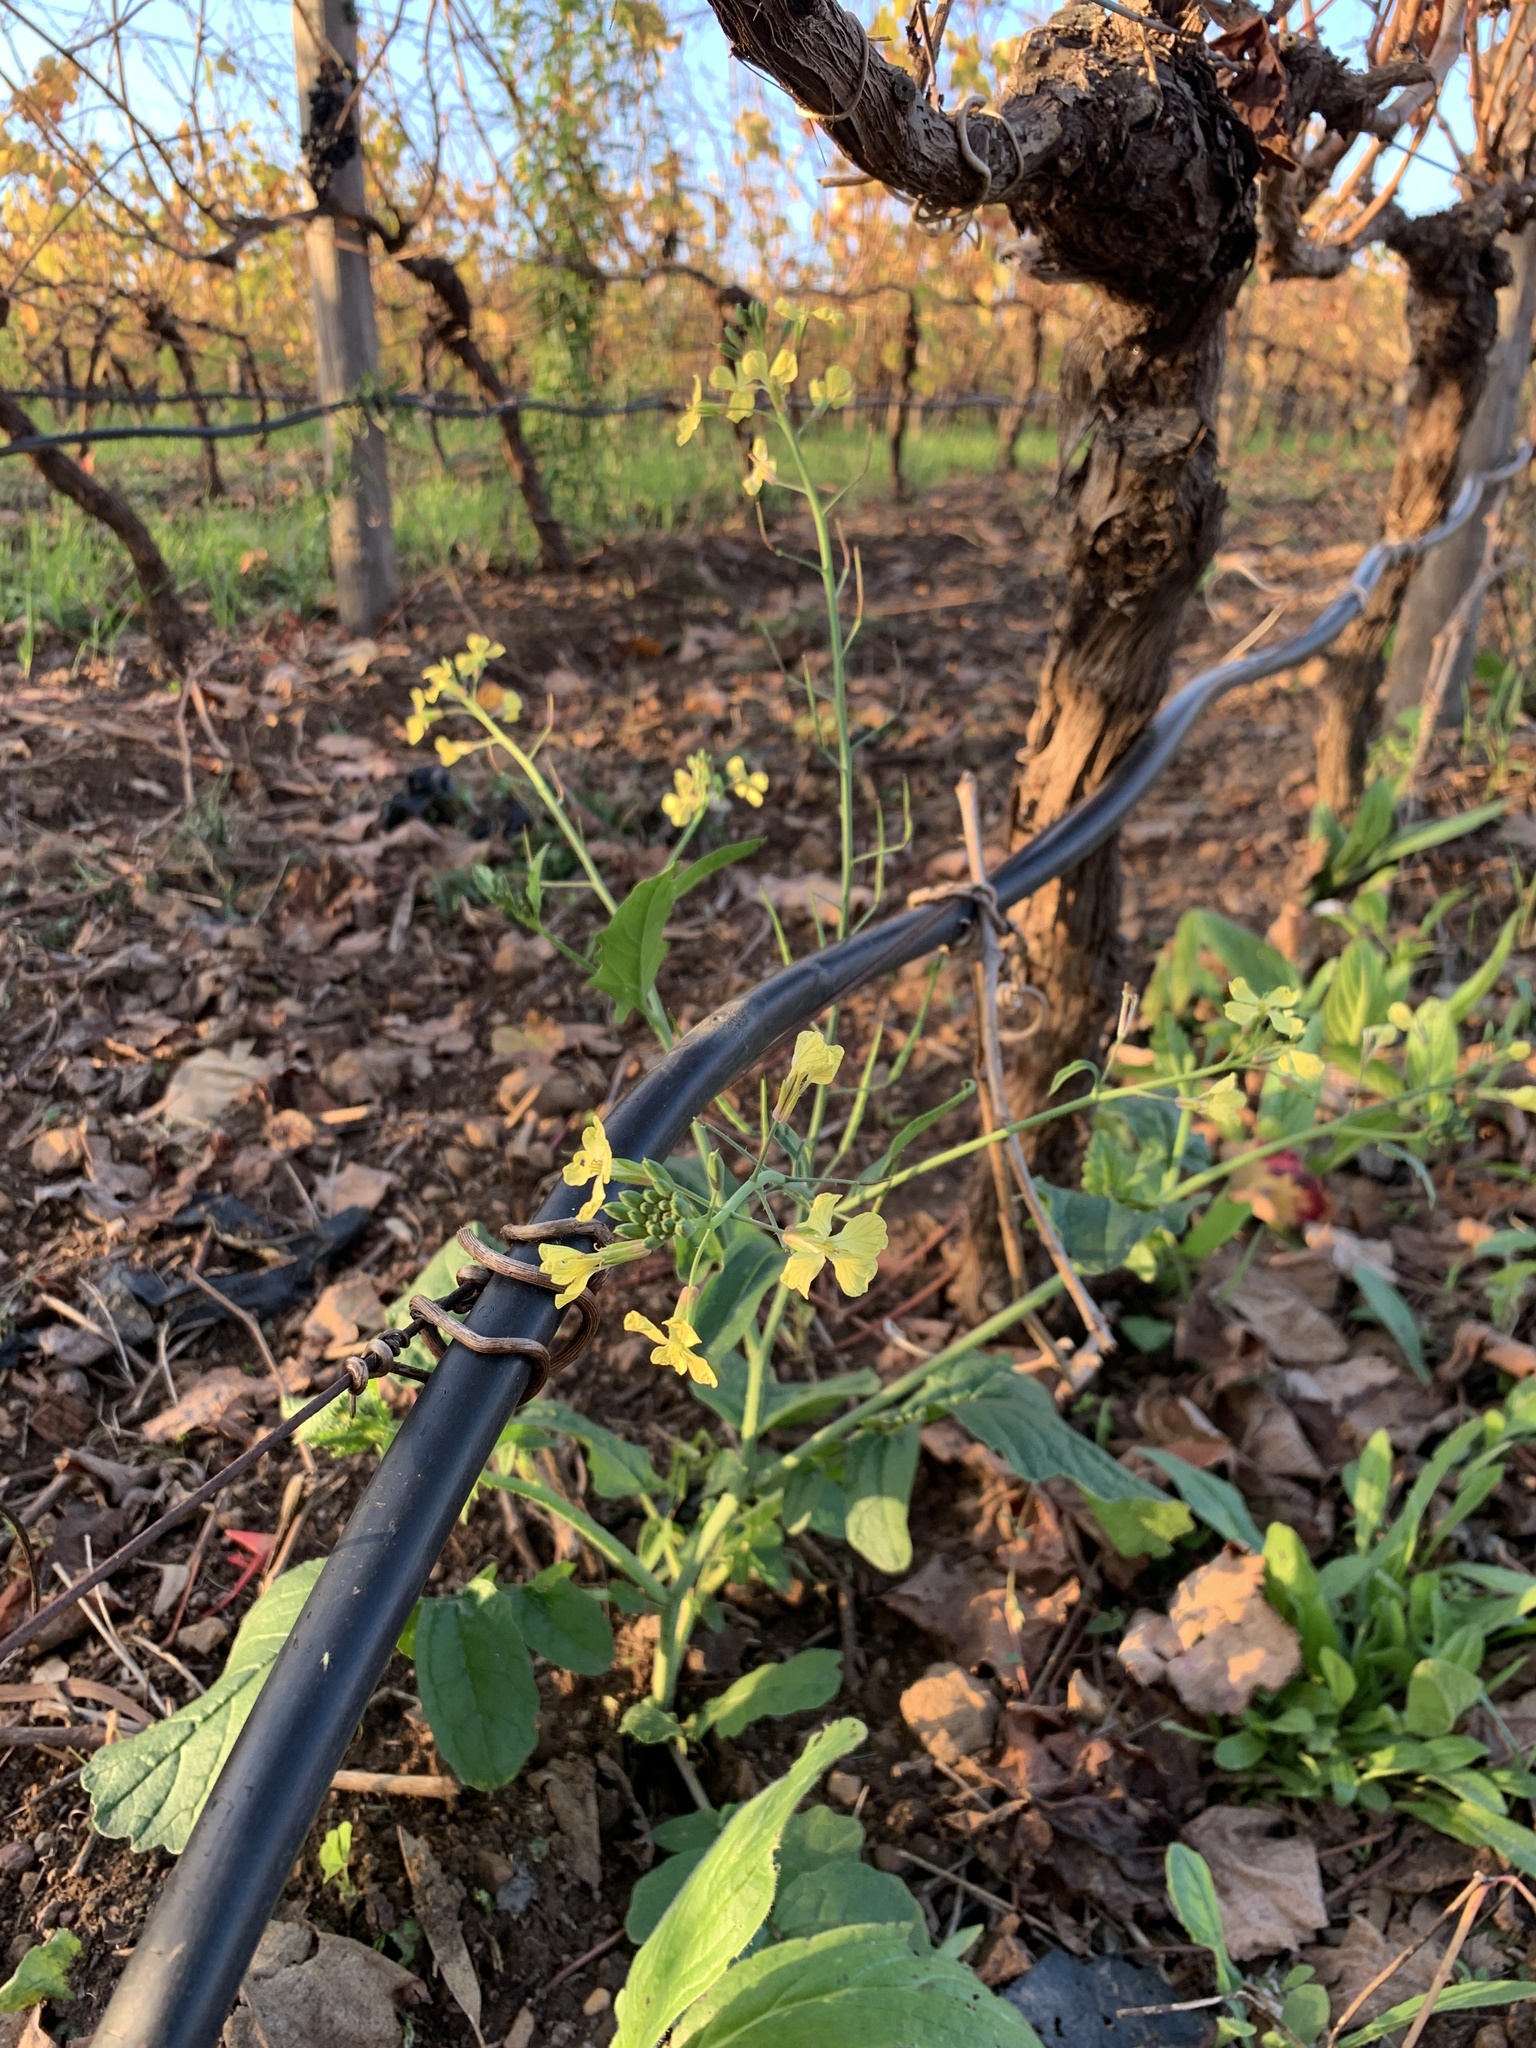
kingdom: Plantae
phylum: Tracheophyta
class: Magnoliopsida
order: Brassicales
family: Brassicaceae
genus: Raphanus
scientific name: Raphanus raphanistrum
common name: Wild radish
